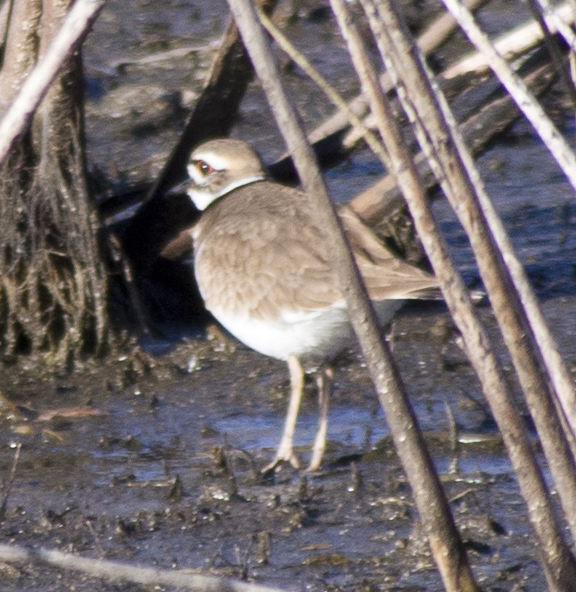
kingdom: Animalia
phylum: Chordata
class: Aves
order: Charadriiformes
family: Charadriidae
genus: Charadrius
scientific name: Charadrius vociferus
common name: Killdeer
